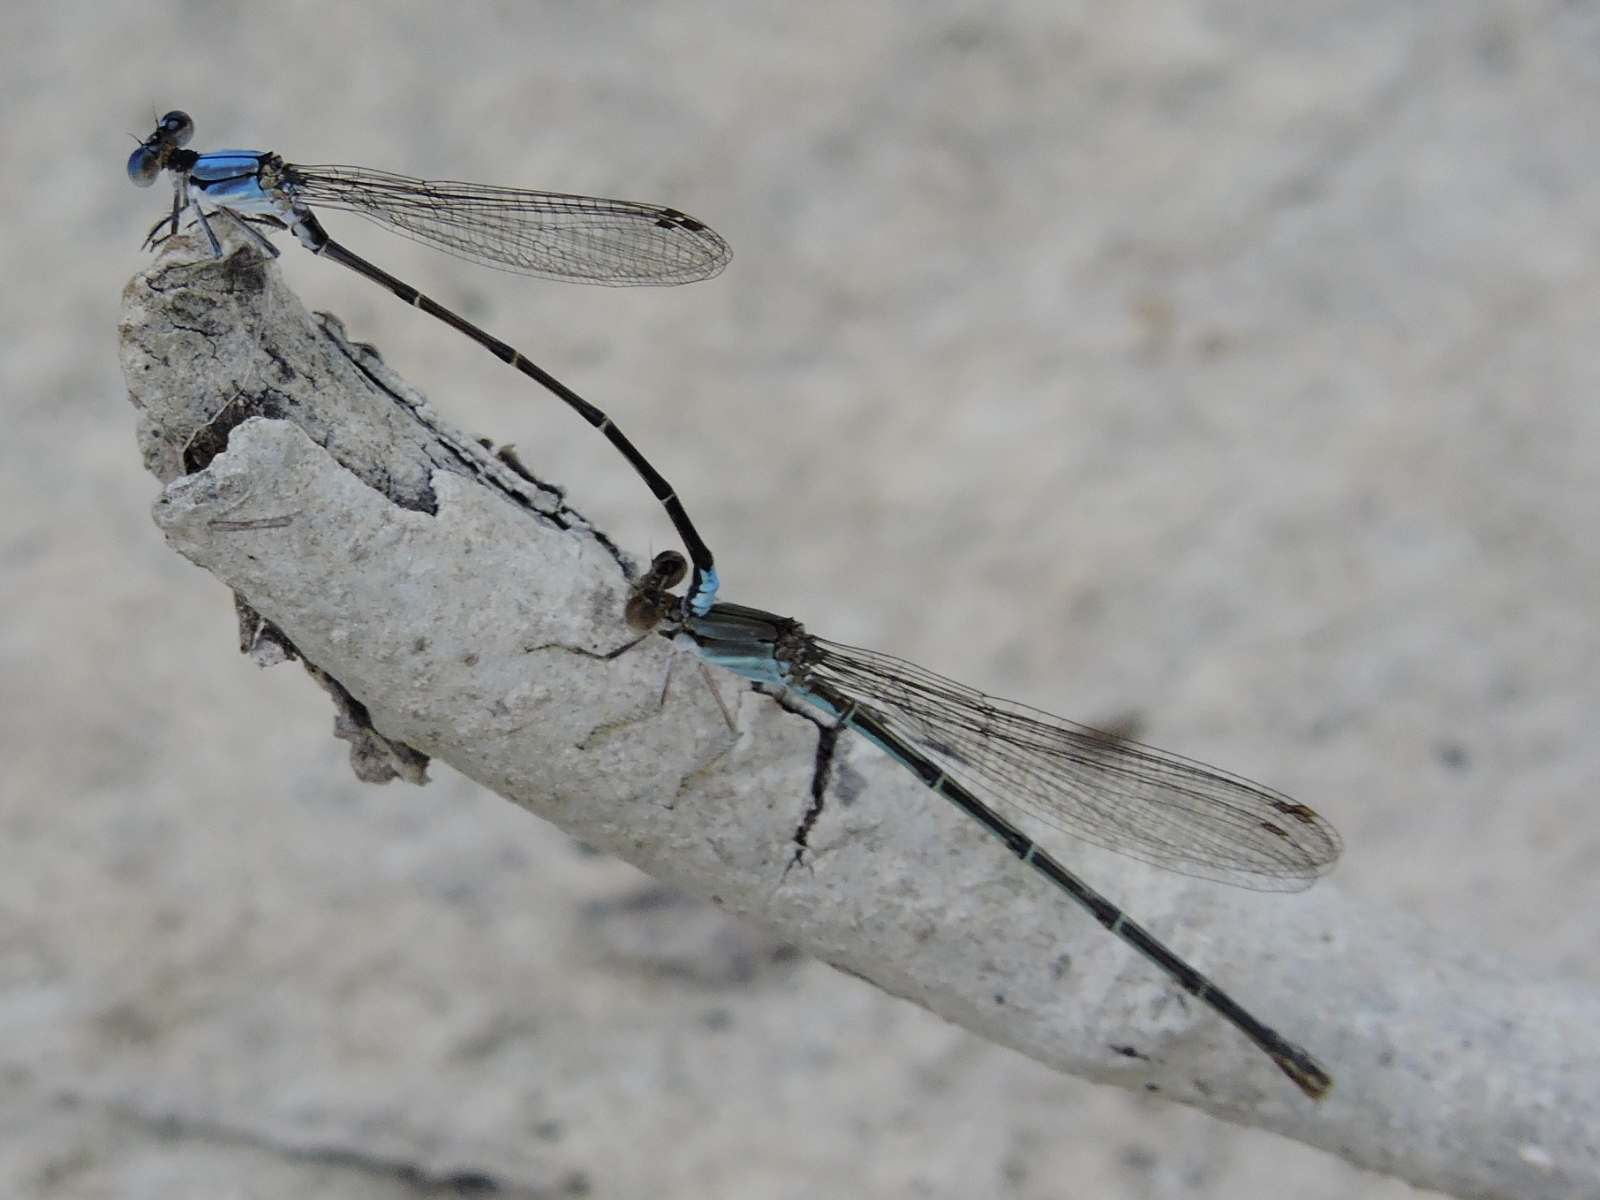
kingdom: Animalia
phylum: Arthropoda
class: Insecta
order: Odonata
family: Coenagrionidae
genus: Argia
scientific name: Argia apicalis
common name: Blue-fronted dancer
